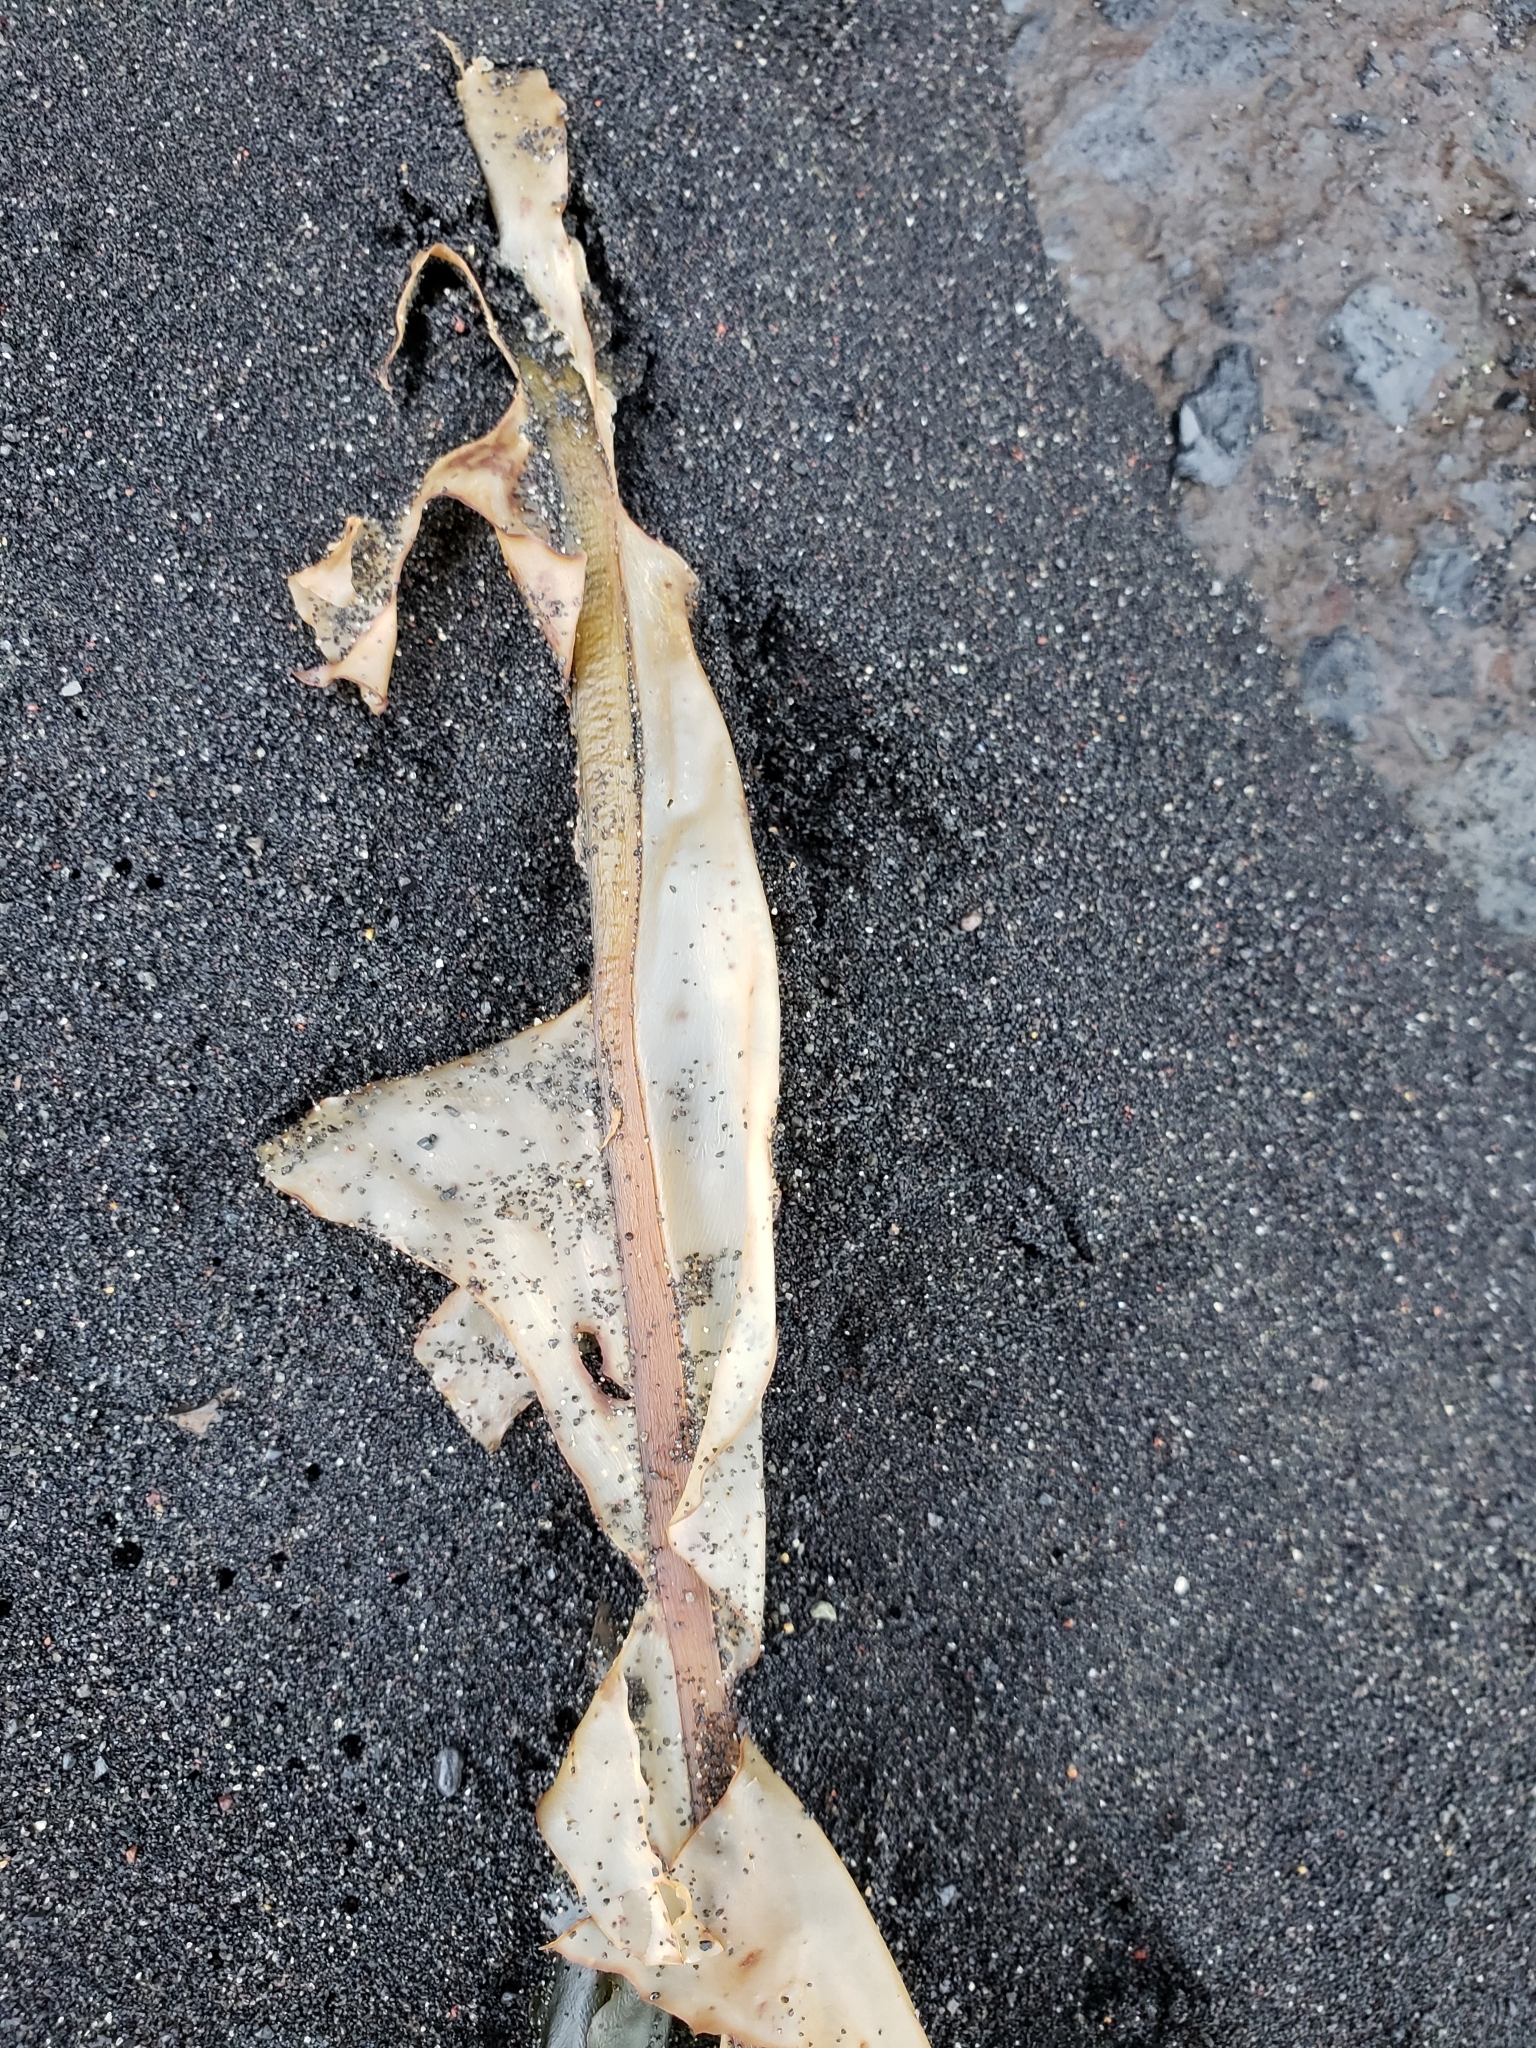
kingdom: Chromista
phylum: Ochrophyta
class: Phaeophyceae
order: Laminariales
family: Alariaceae
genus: Alaria
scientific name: Alaria esculenta
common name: Dabberlocks
